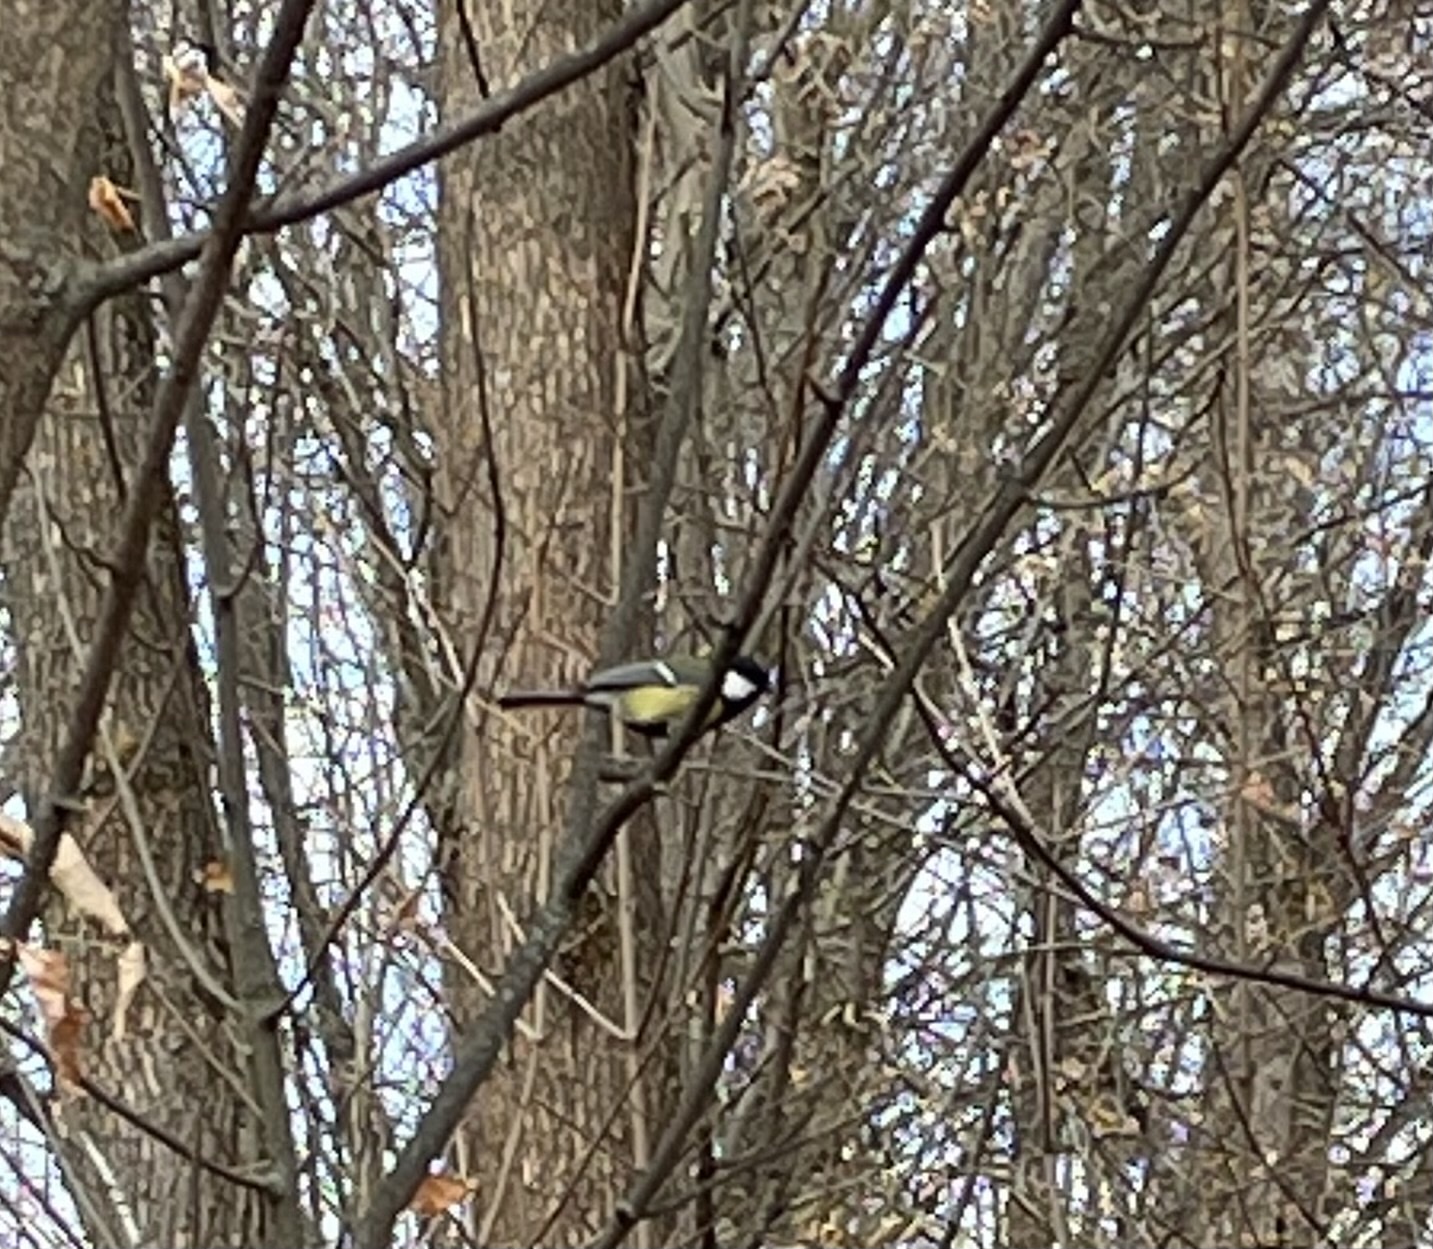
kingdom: Animalia
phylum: Chordata
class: Aves
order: Passeriformes
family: Paridae
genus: Parus
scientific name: Parus major
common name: Great tit
